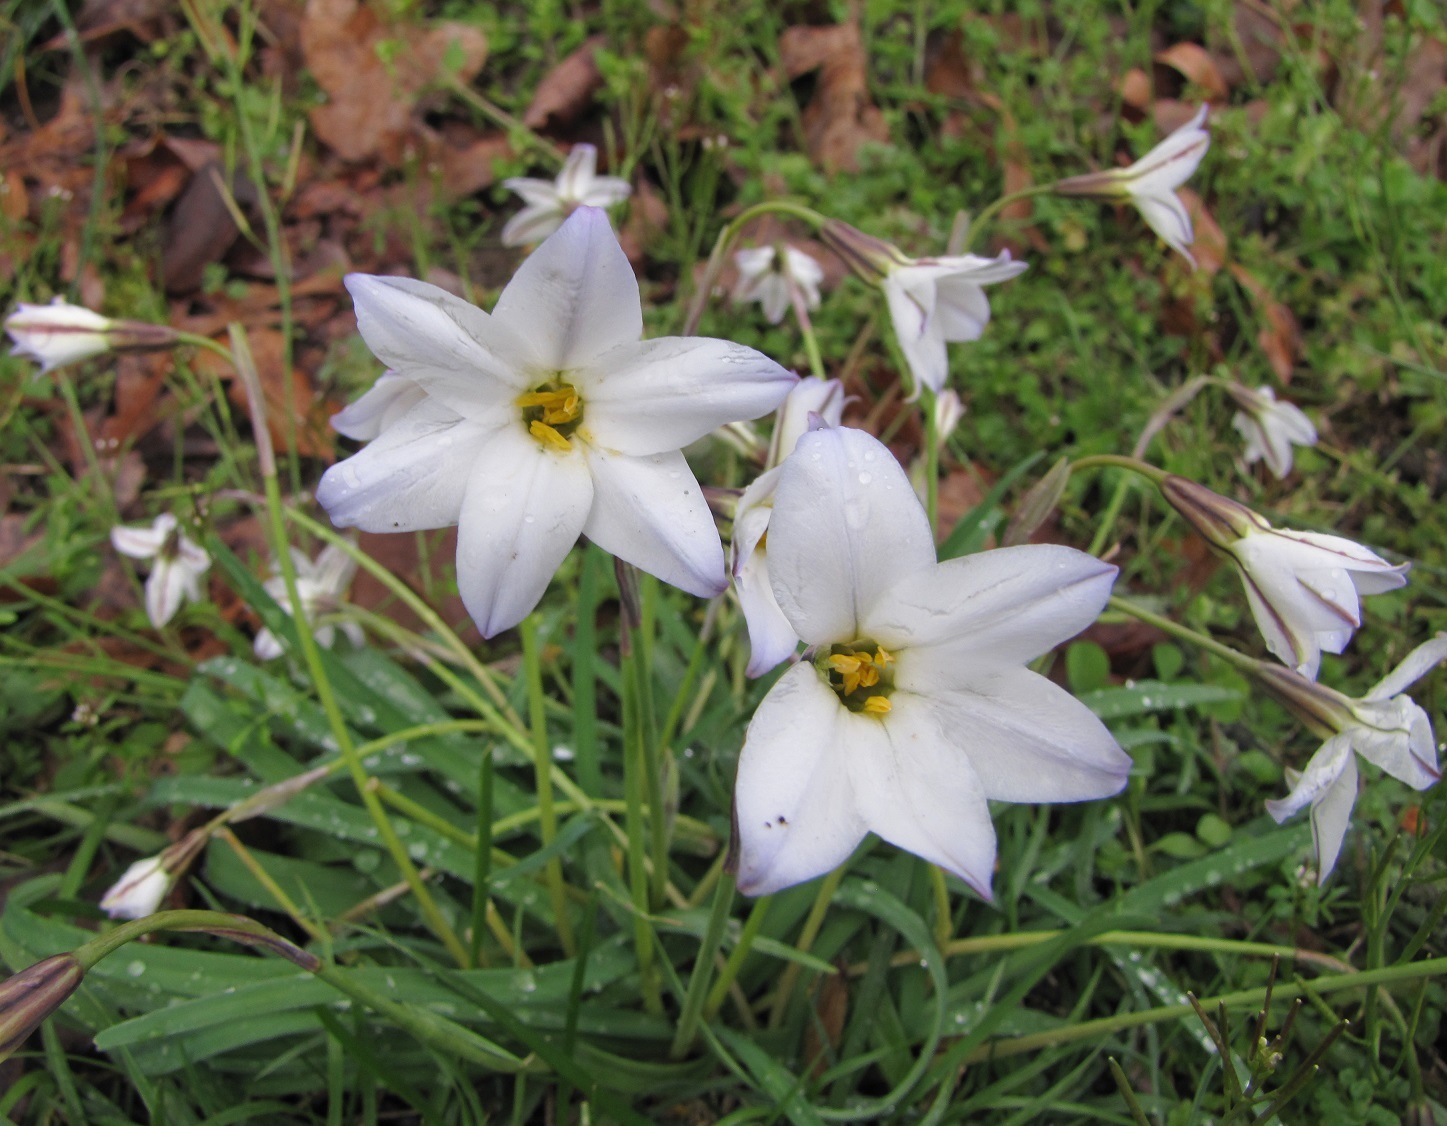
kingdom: Plantae
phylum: Tracheophyta
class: Liliopsida
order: Asparagales
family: Amaryllidaceae
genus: Ipheion
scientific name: Ipheion uniflorum
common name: Spring starflower
